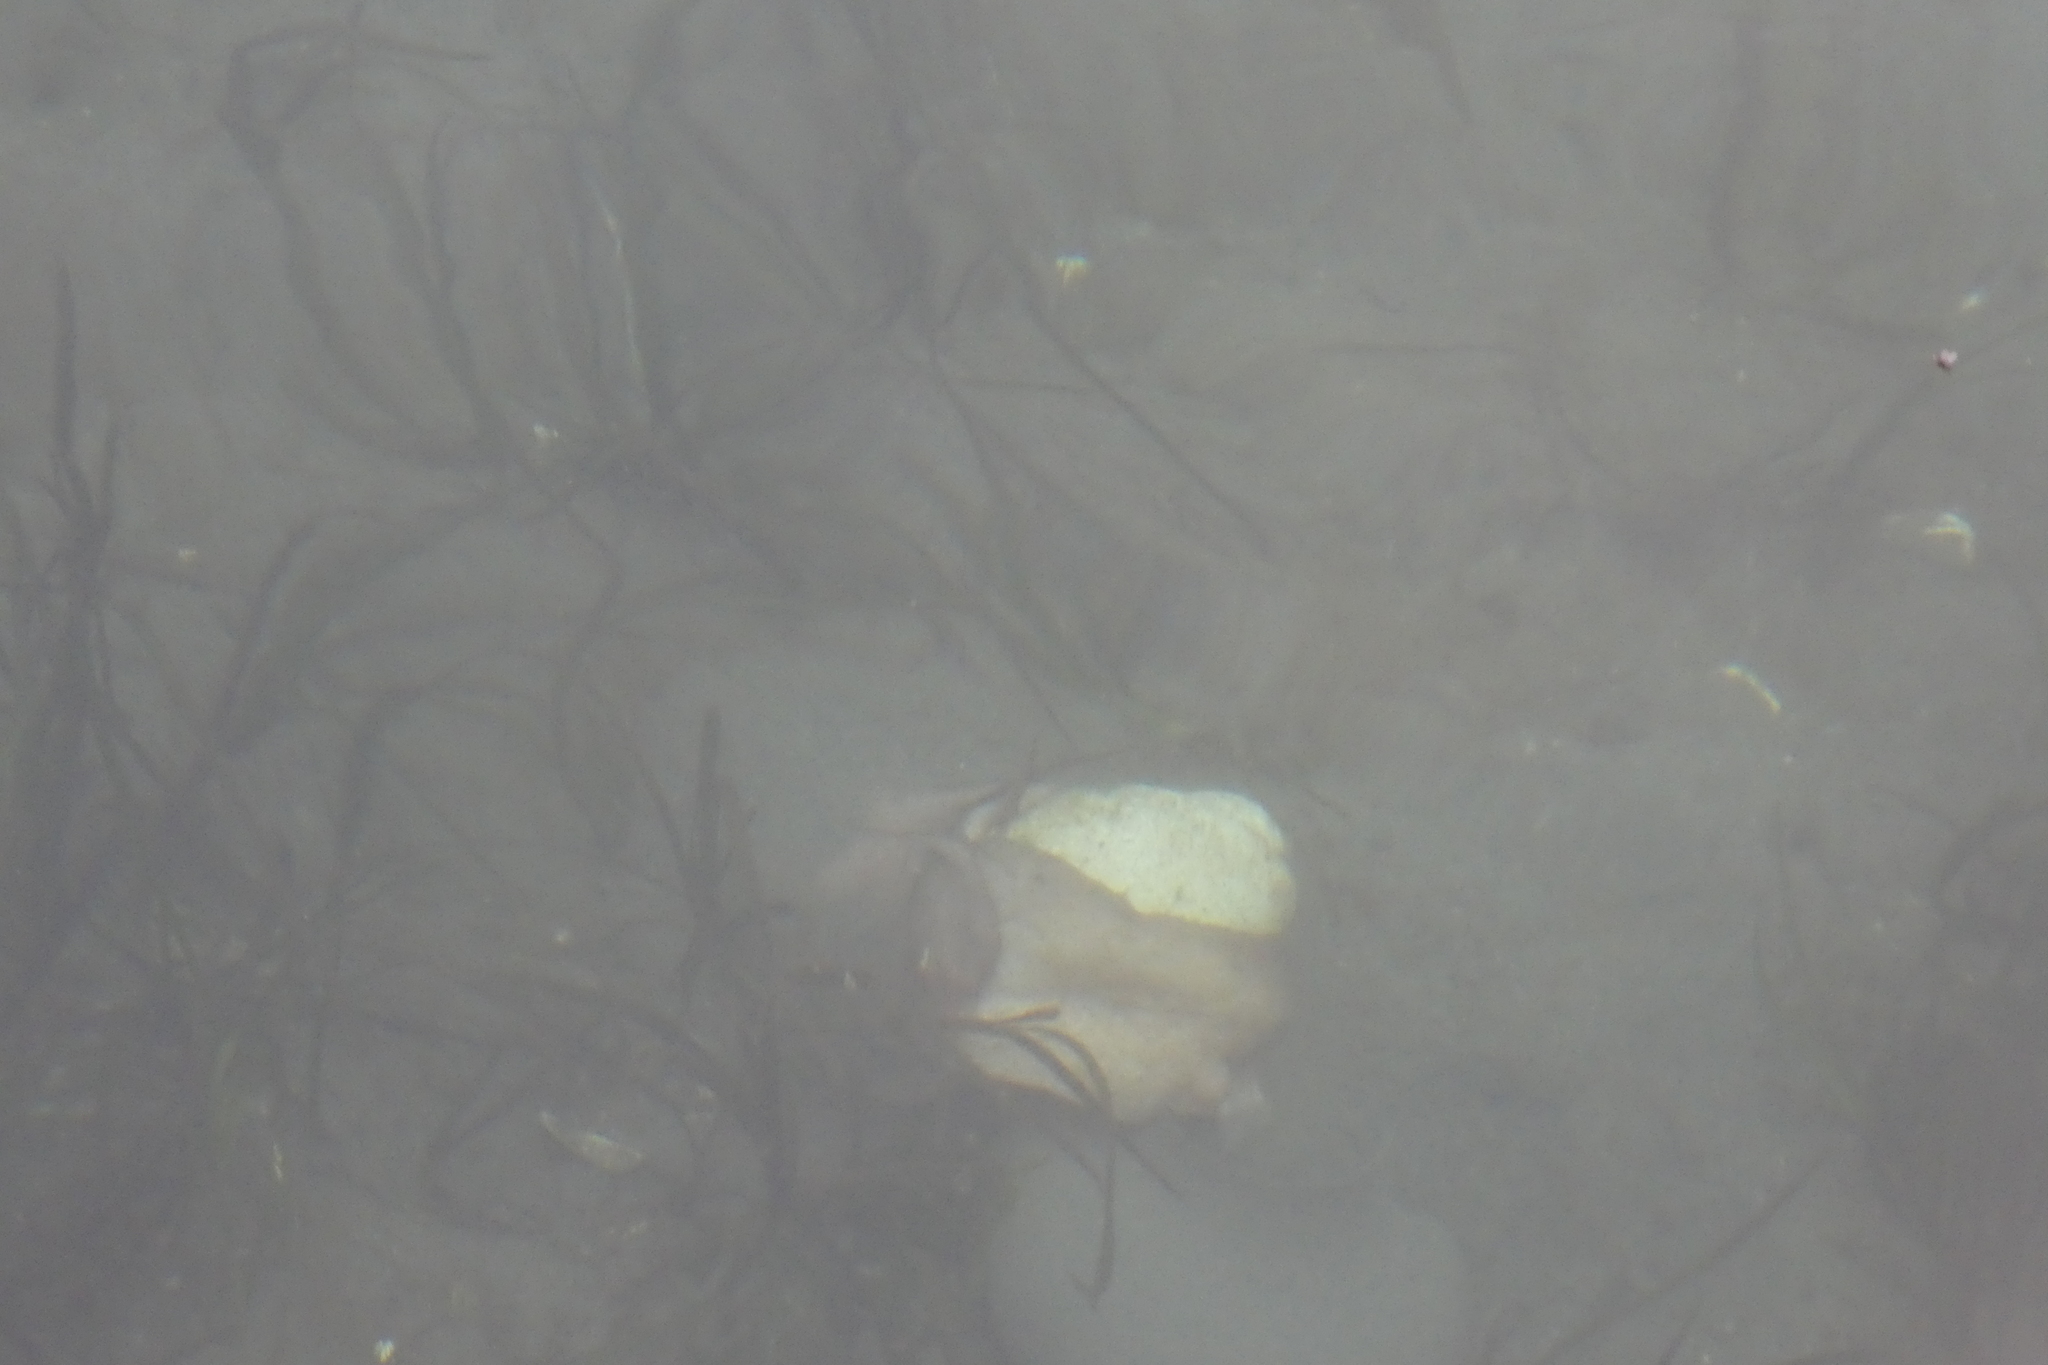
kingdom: Animalia
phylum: Mollusca
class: Gastropoda
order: Littorinimorpha
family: Naticidae
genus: Neverita
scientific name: Neverita lewisii
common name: Lewis' moonsnail
